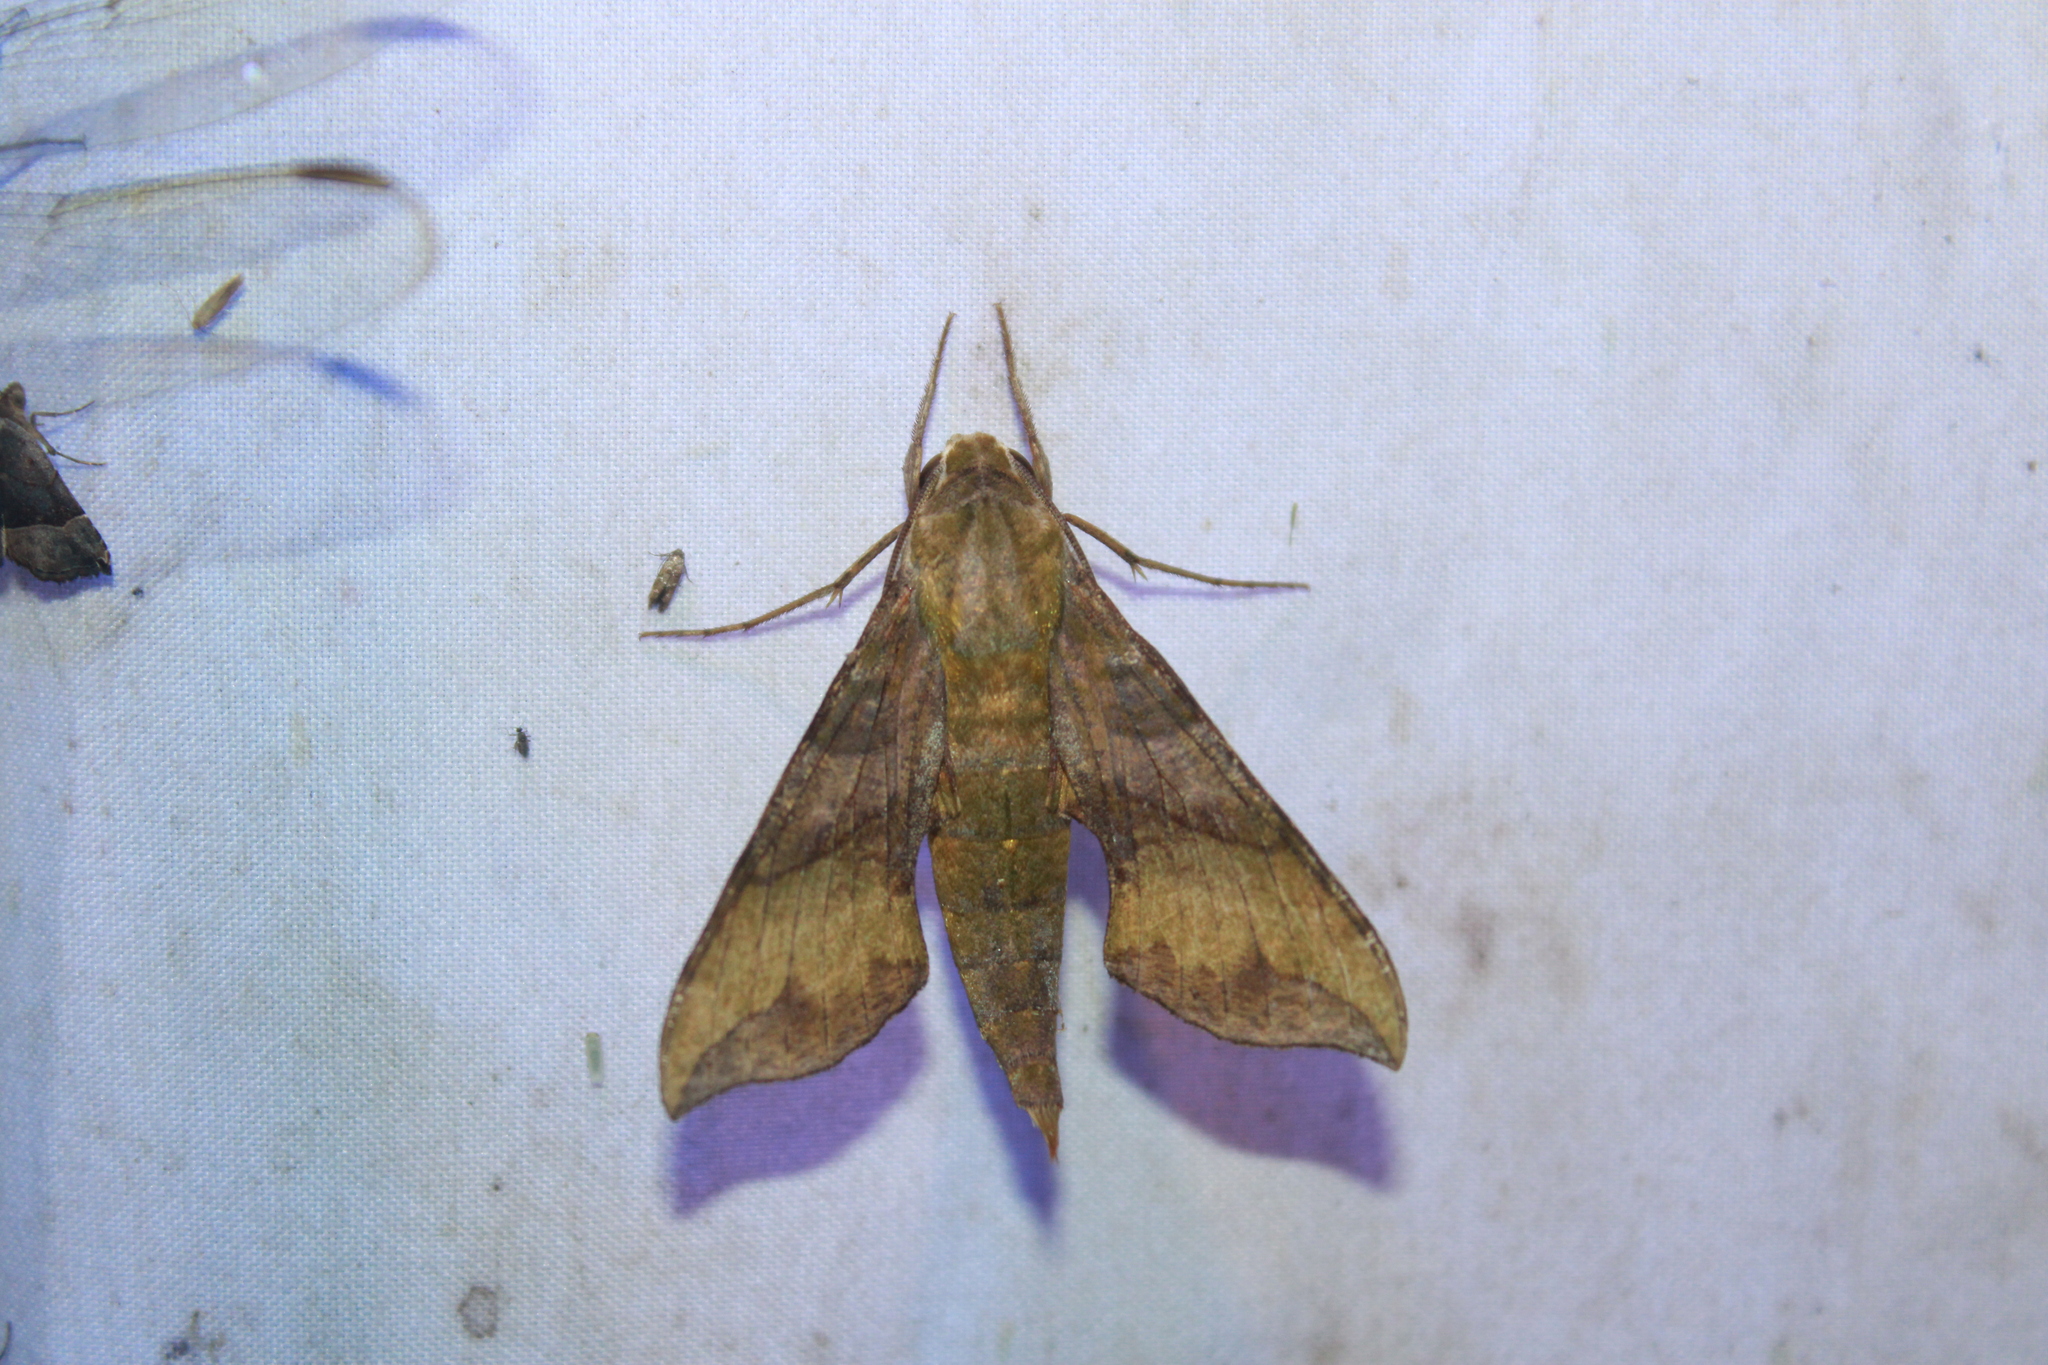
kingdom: Animalia
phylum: Arthropoda
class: Insecta
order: Lepidoptera
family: Sphingidae
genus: Xylophanes
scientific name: Xylophanes pluto
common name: Pluto sphinx
